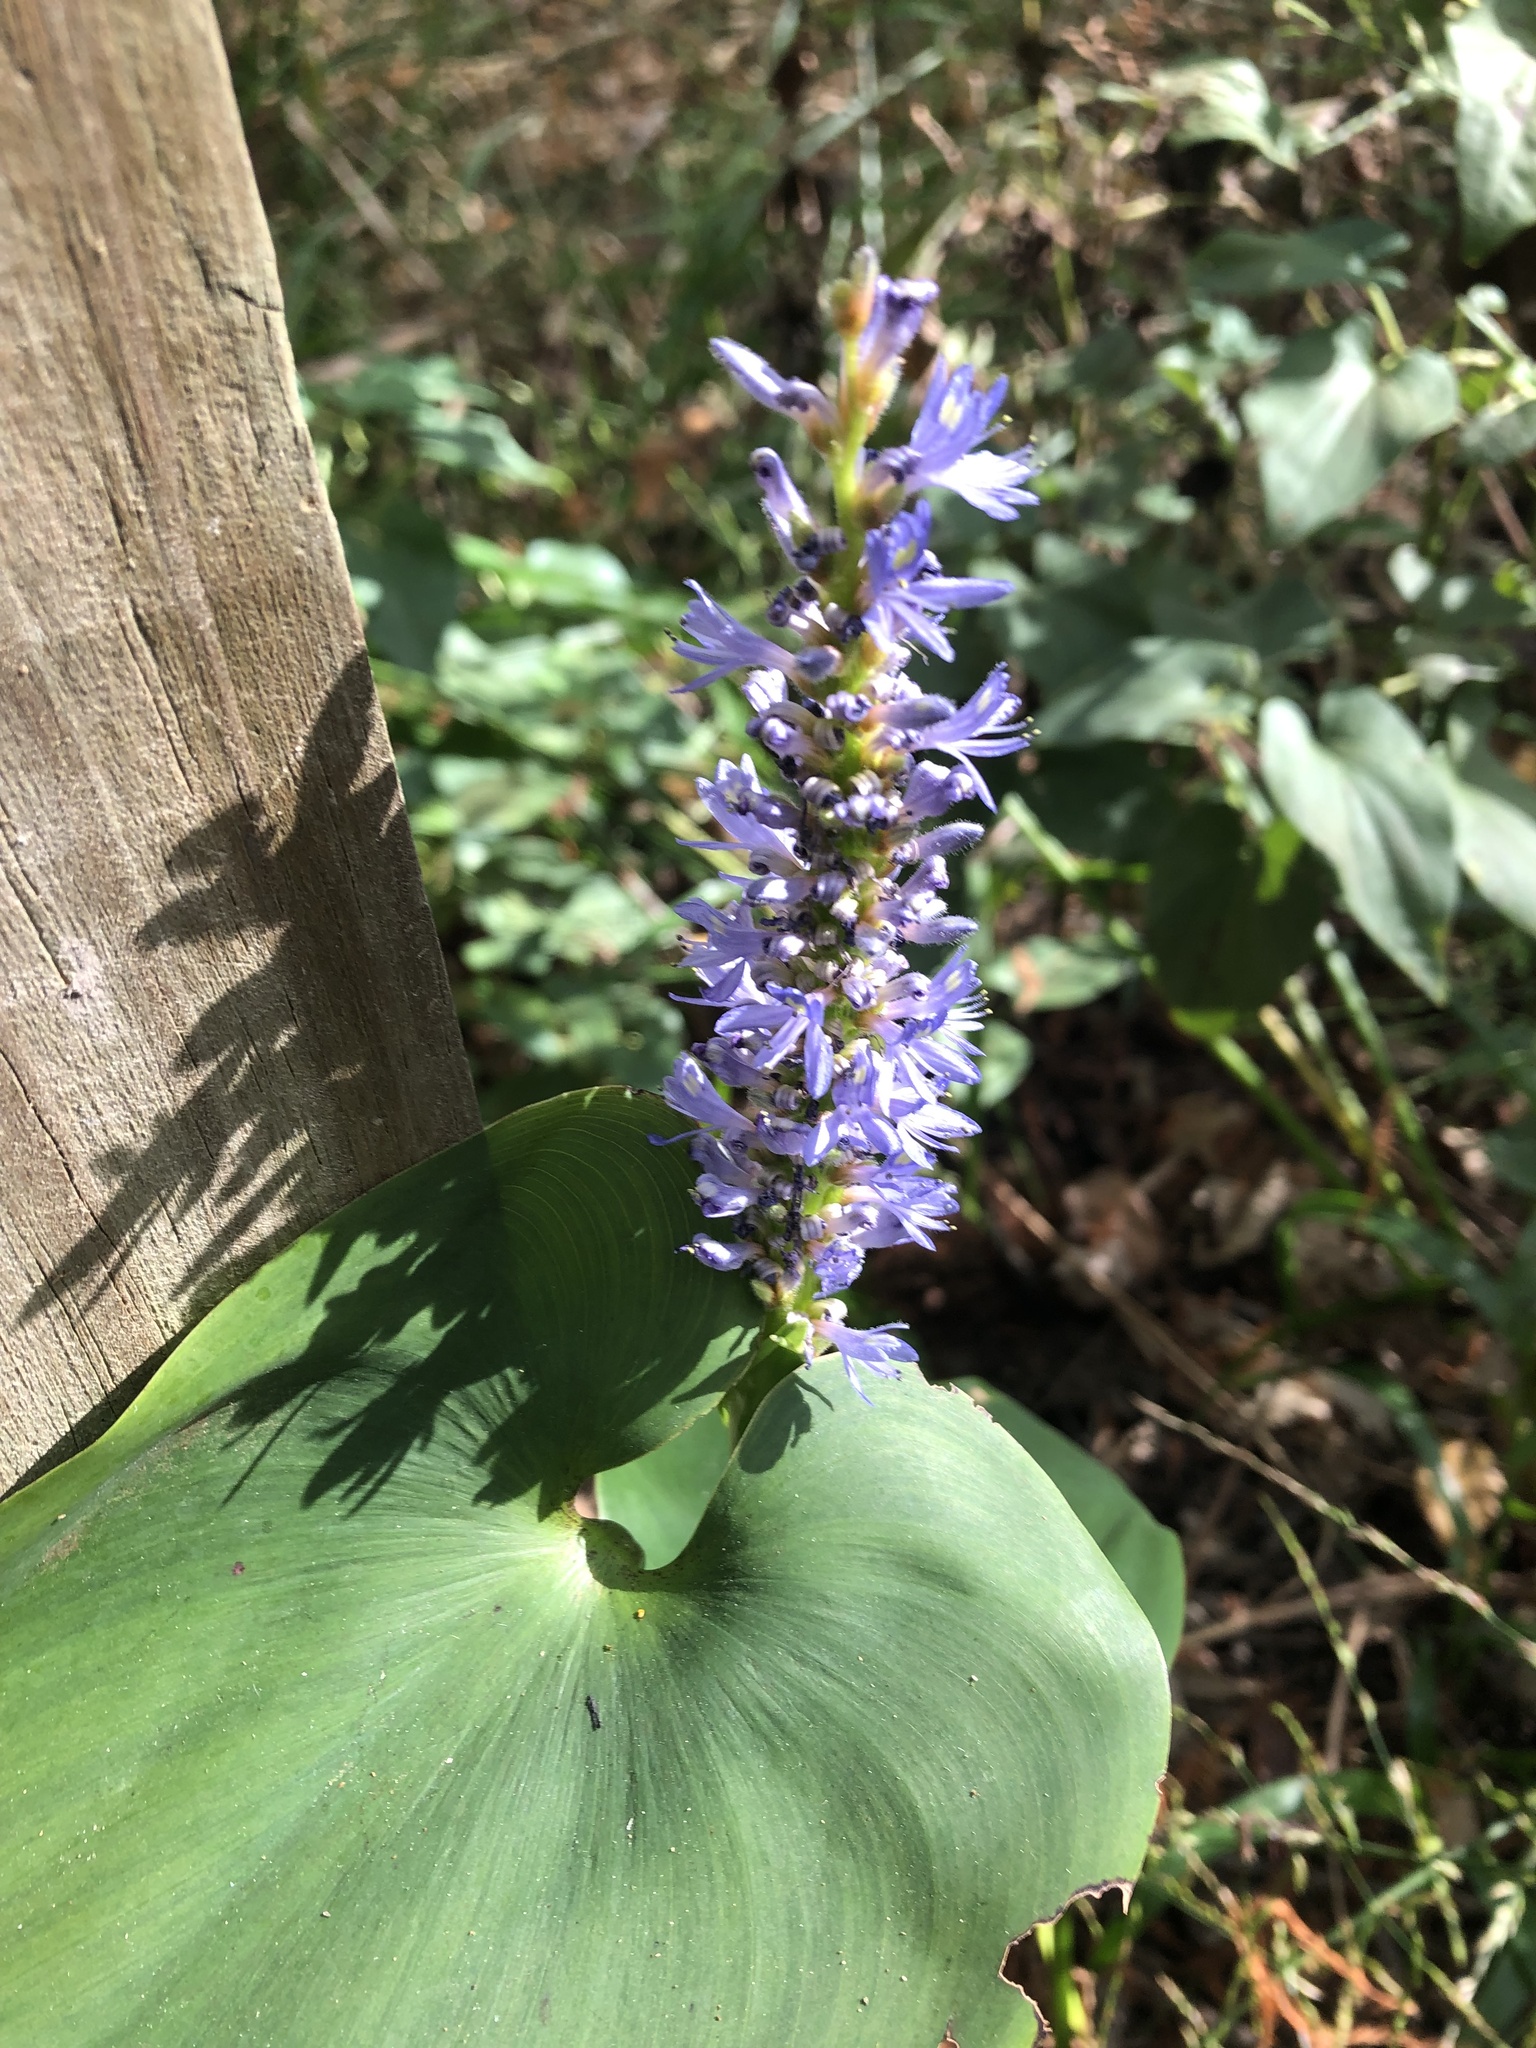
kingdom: Plantae
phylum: Tracheophyta
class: Liliopsida
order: Commelinales
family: Pontederiaceae
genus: Pontederia
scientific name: Pontederia cordata
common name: Pickerelweed
